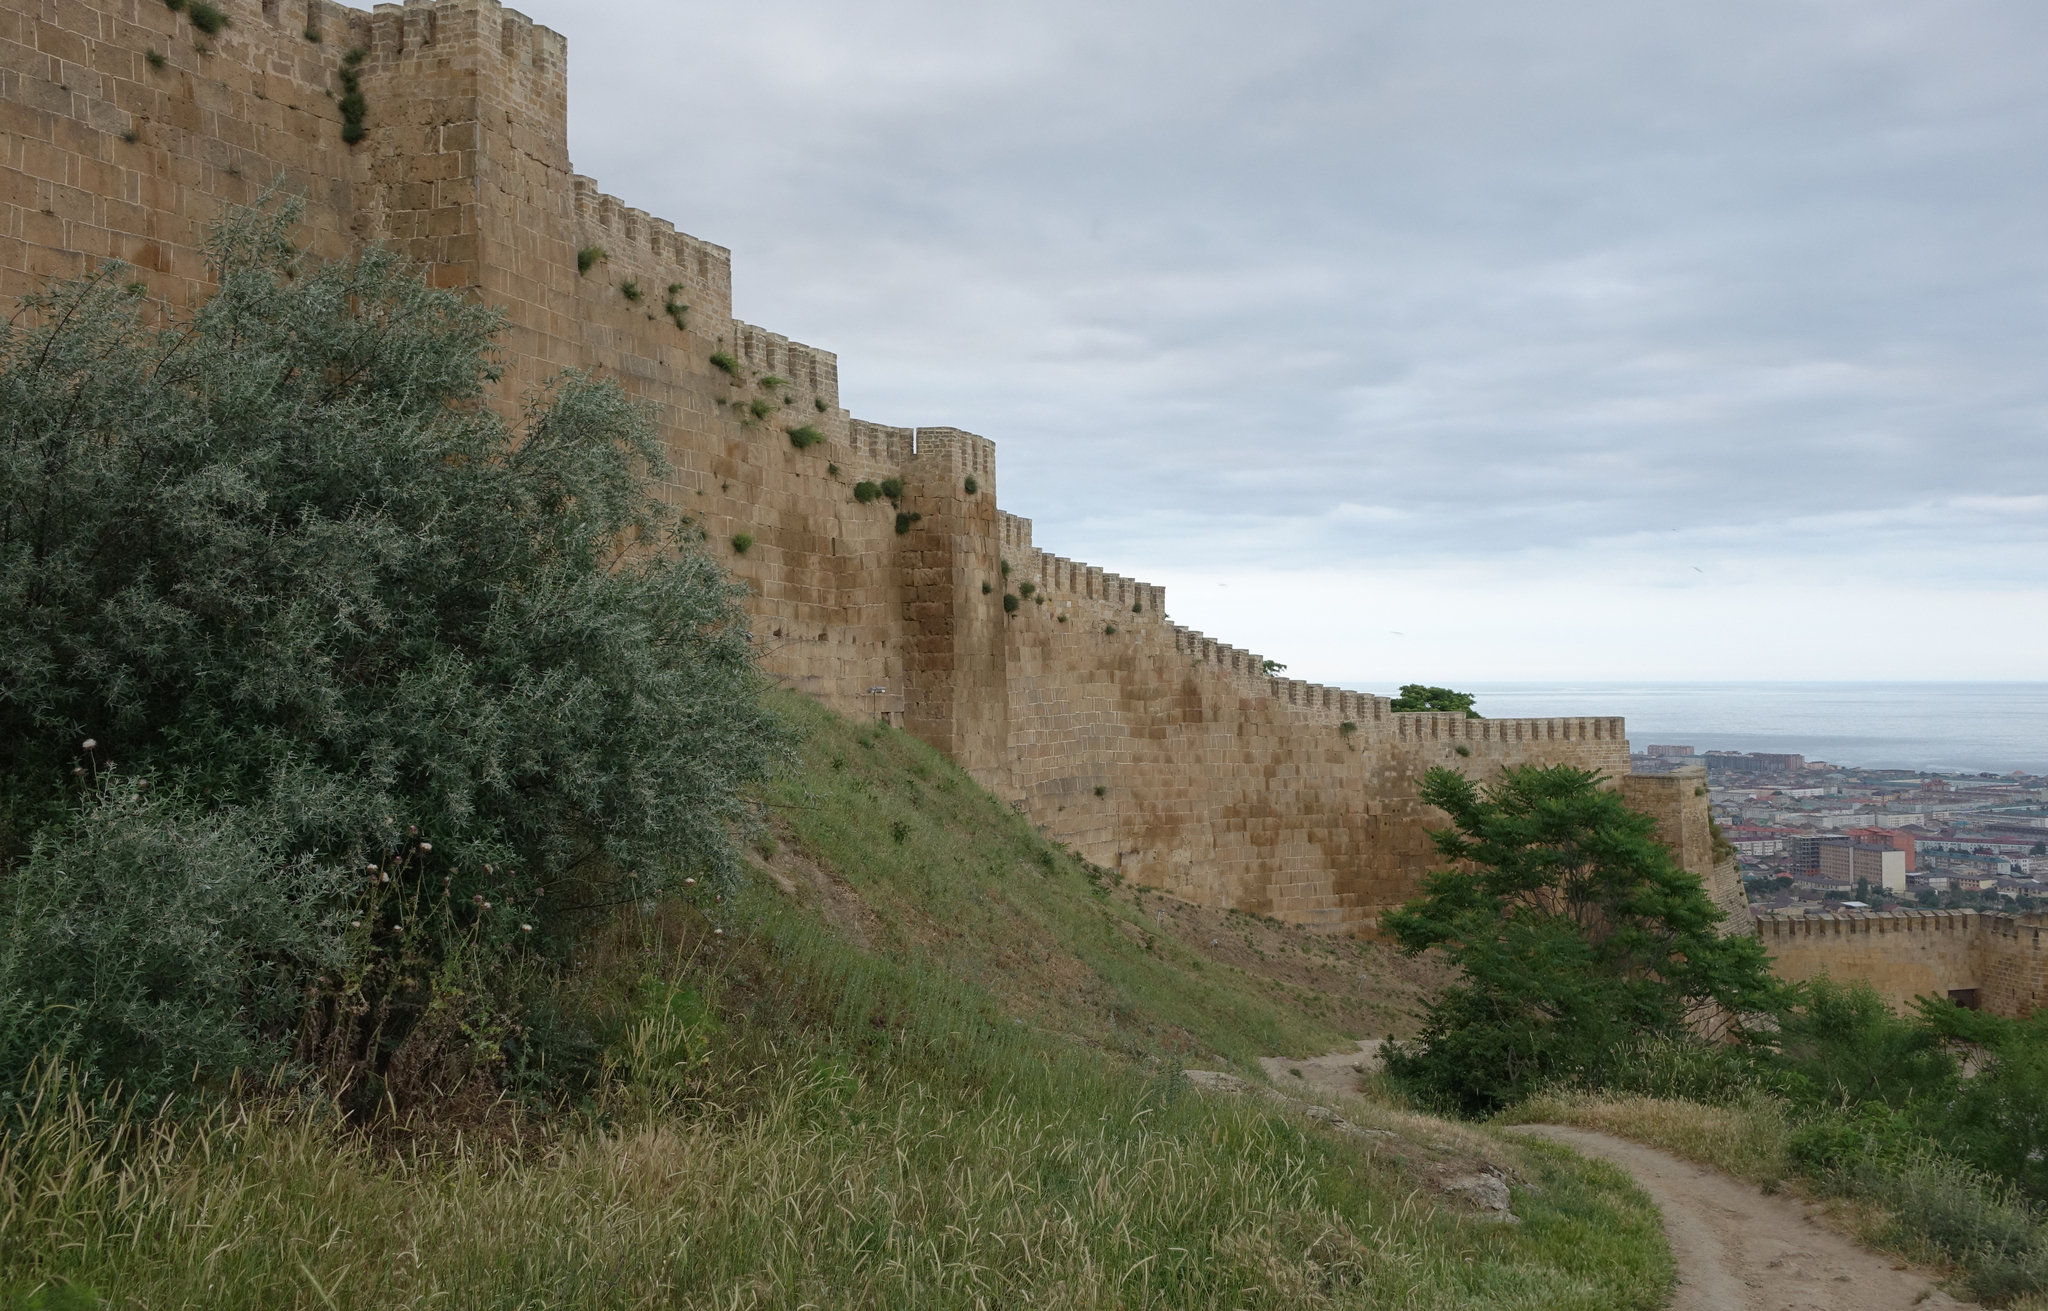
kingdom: Plantae
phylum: Tracheophyta
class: Magnoliopsida
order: Rosales
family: Elaeagnaceae
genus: Elaeagnus
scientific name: Elaeagnus angustifolia
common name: Russian olive
